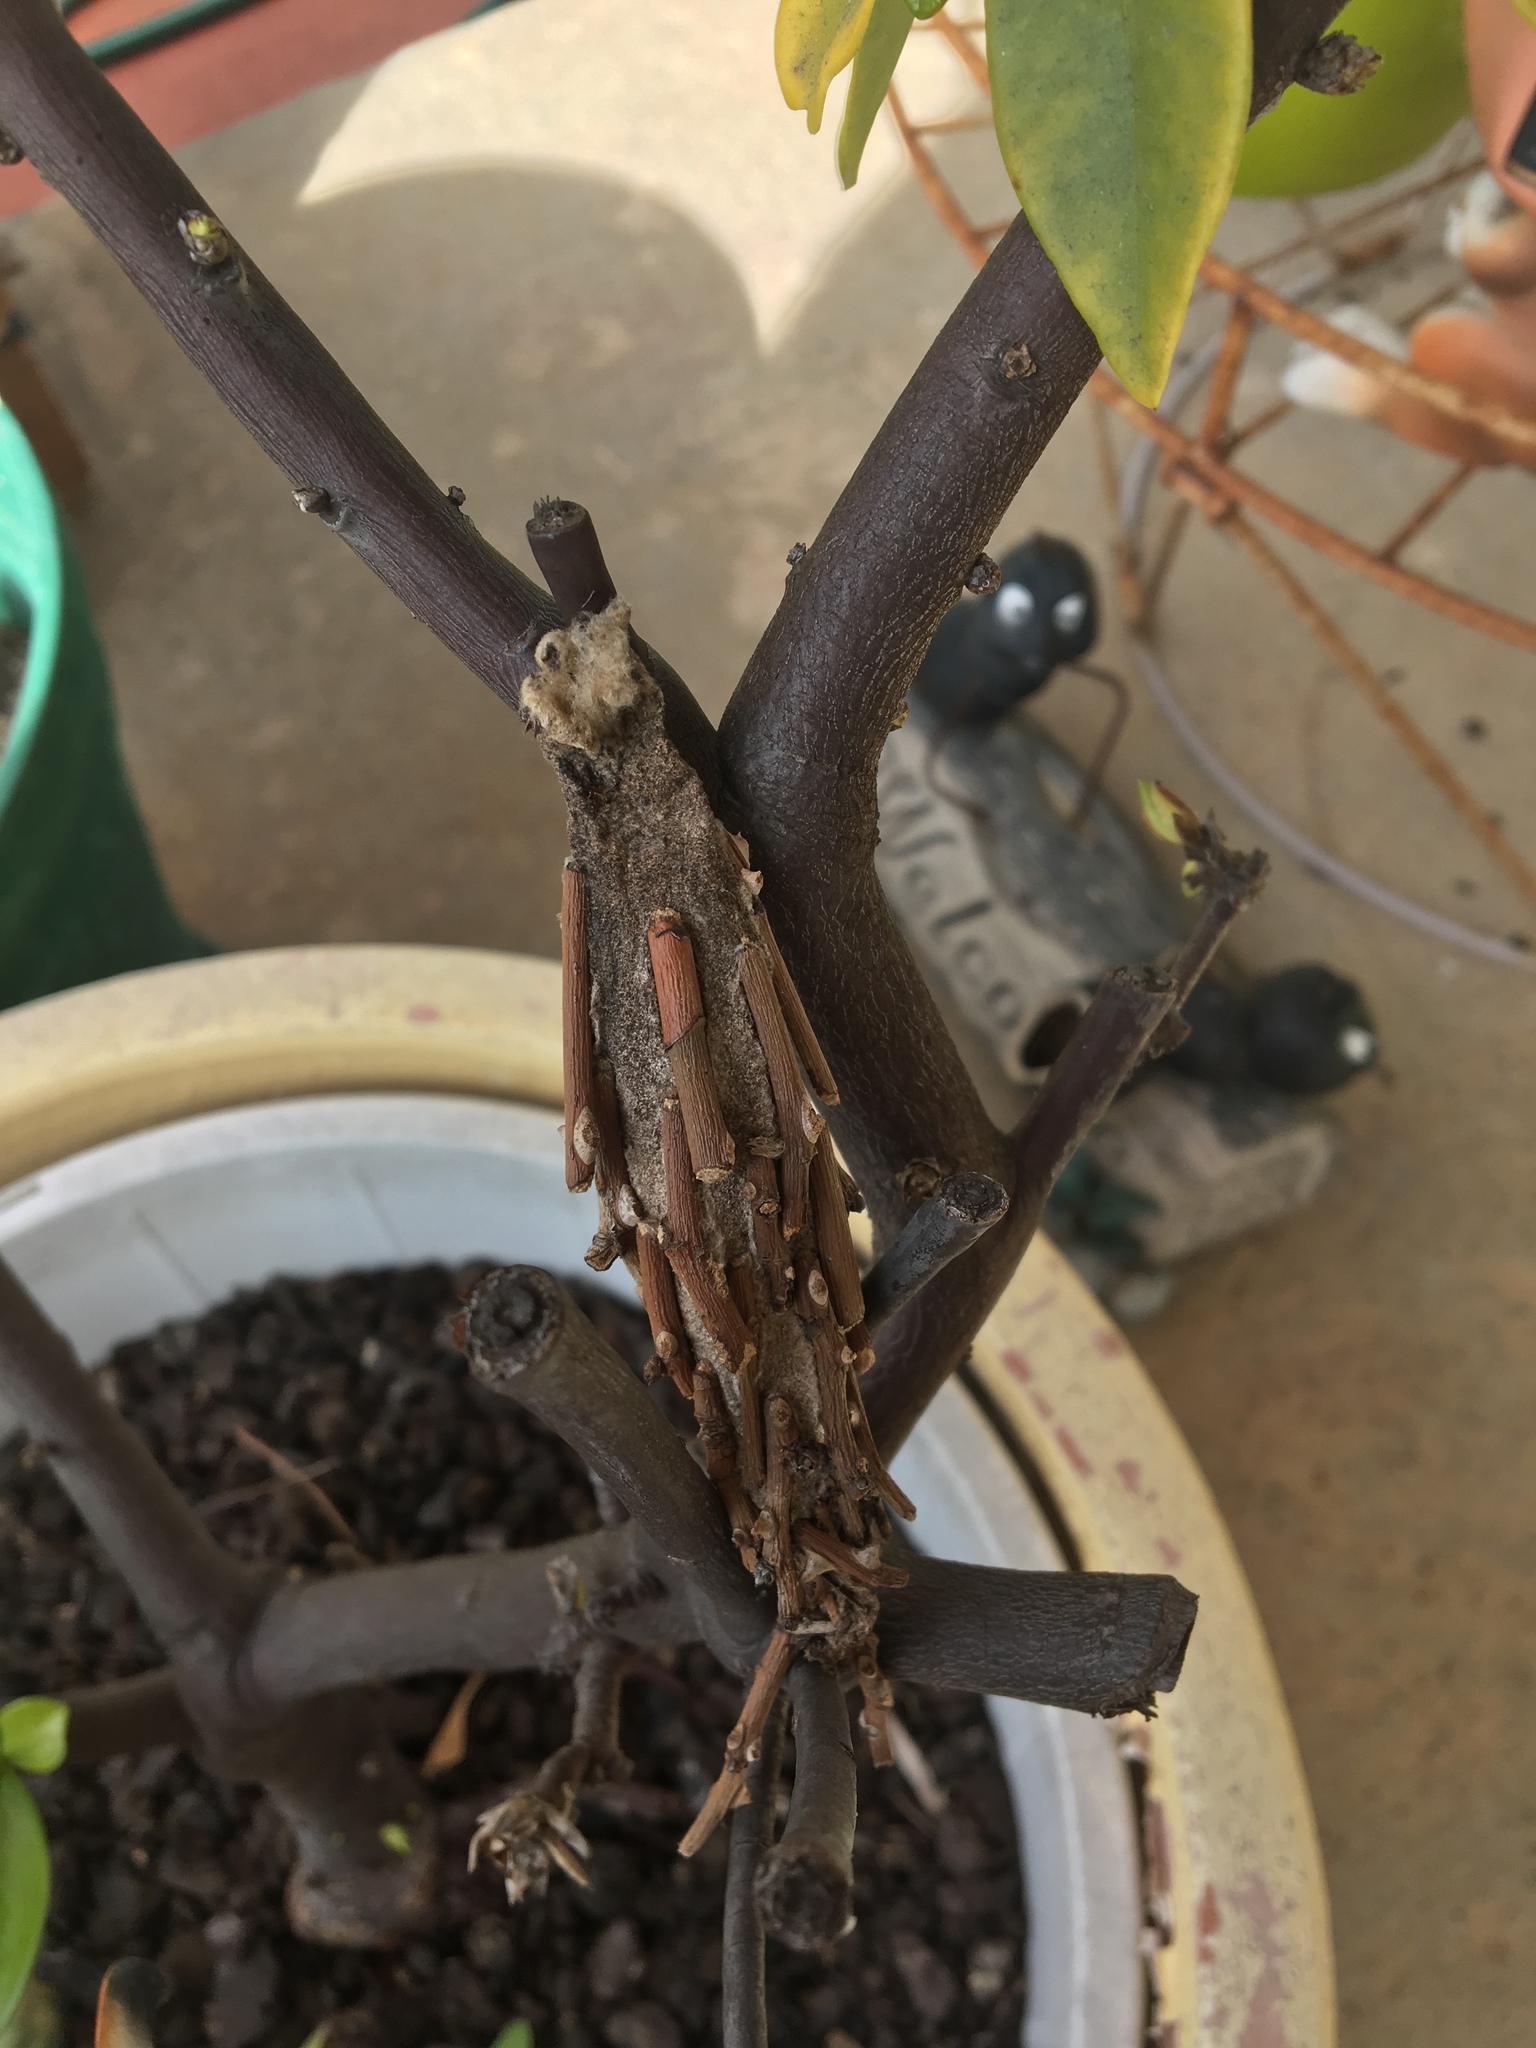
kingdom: Animalia
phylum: Arthropoda
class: Insecta
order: Lepidoptera
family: Psychidae
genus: Metura
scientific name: Metura elongatus
